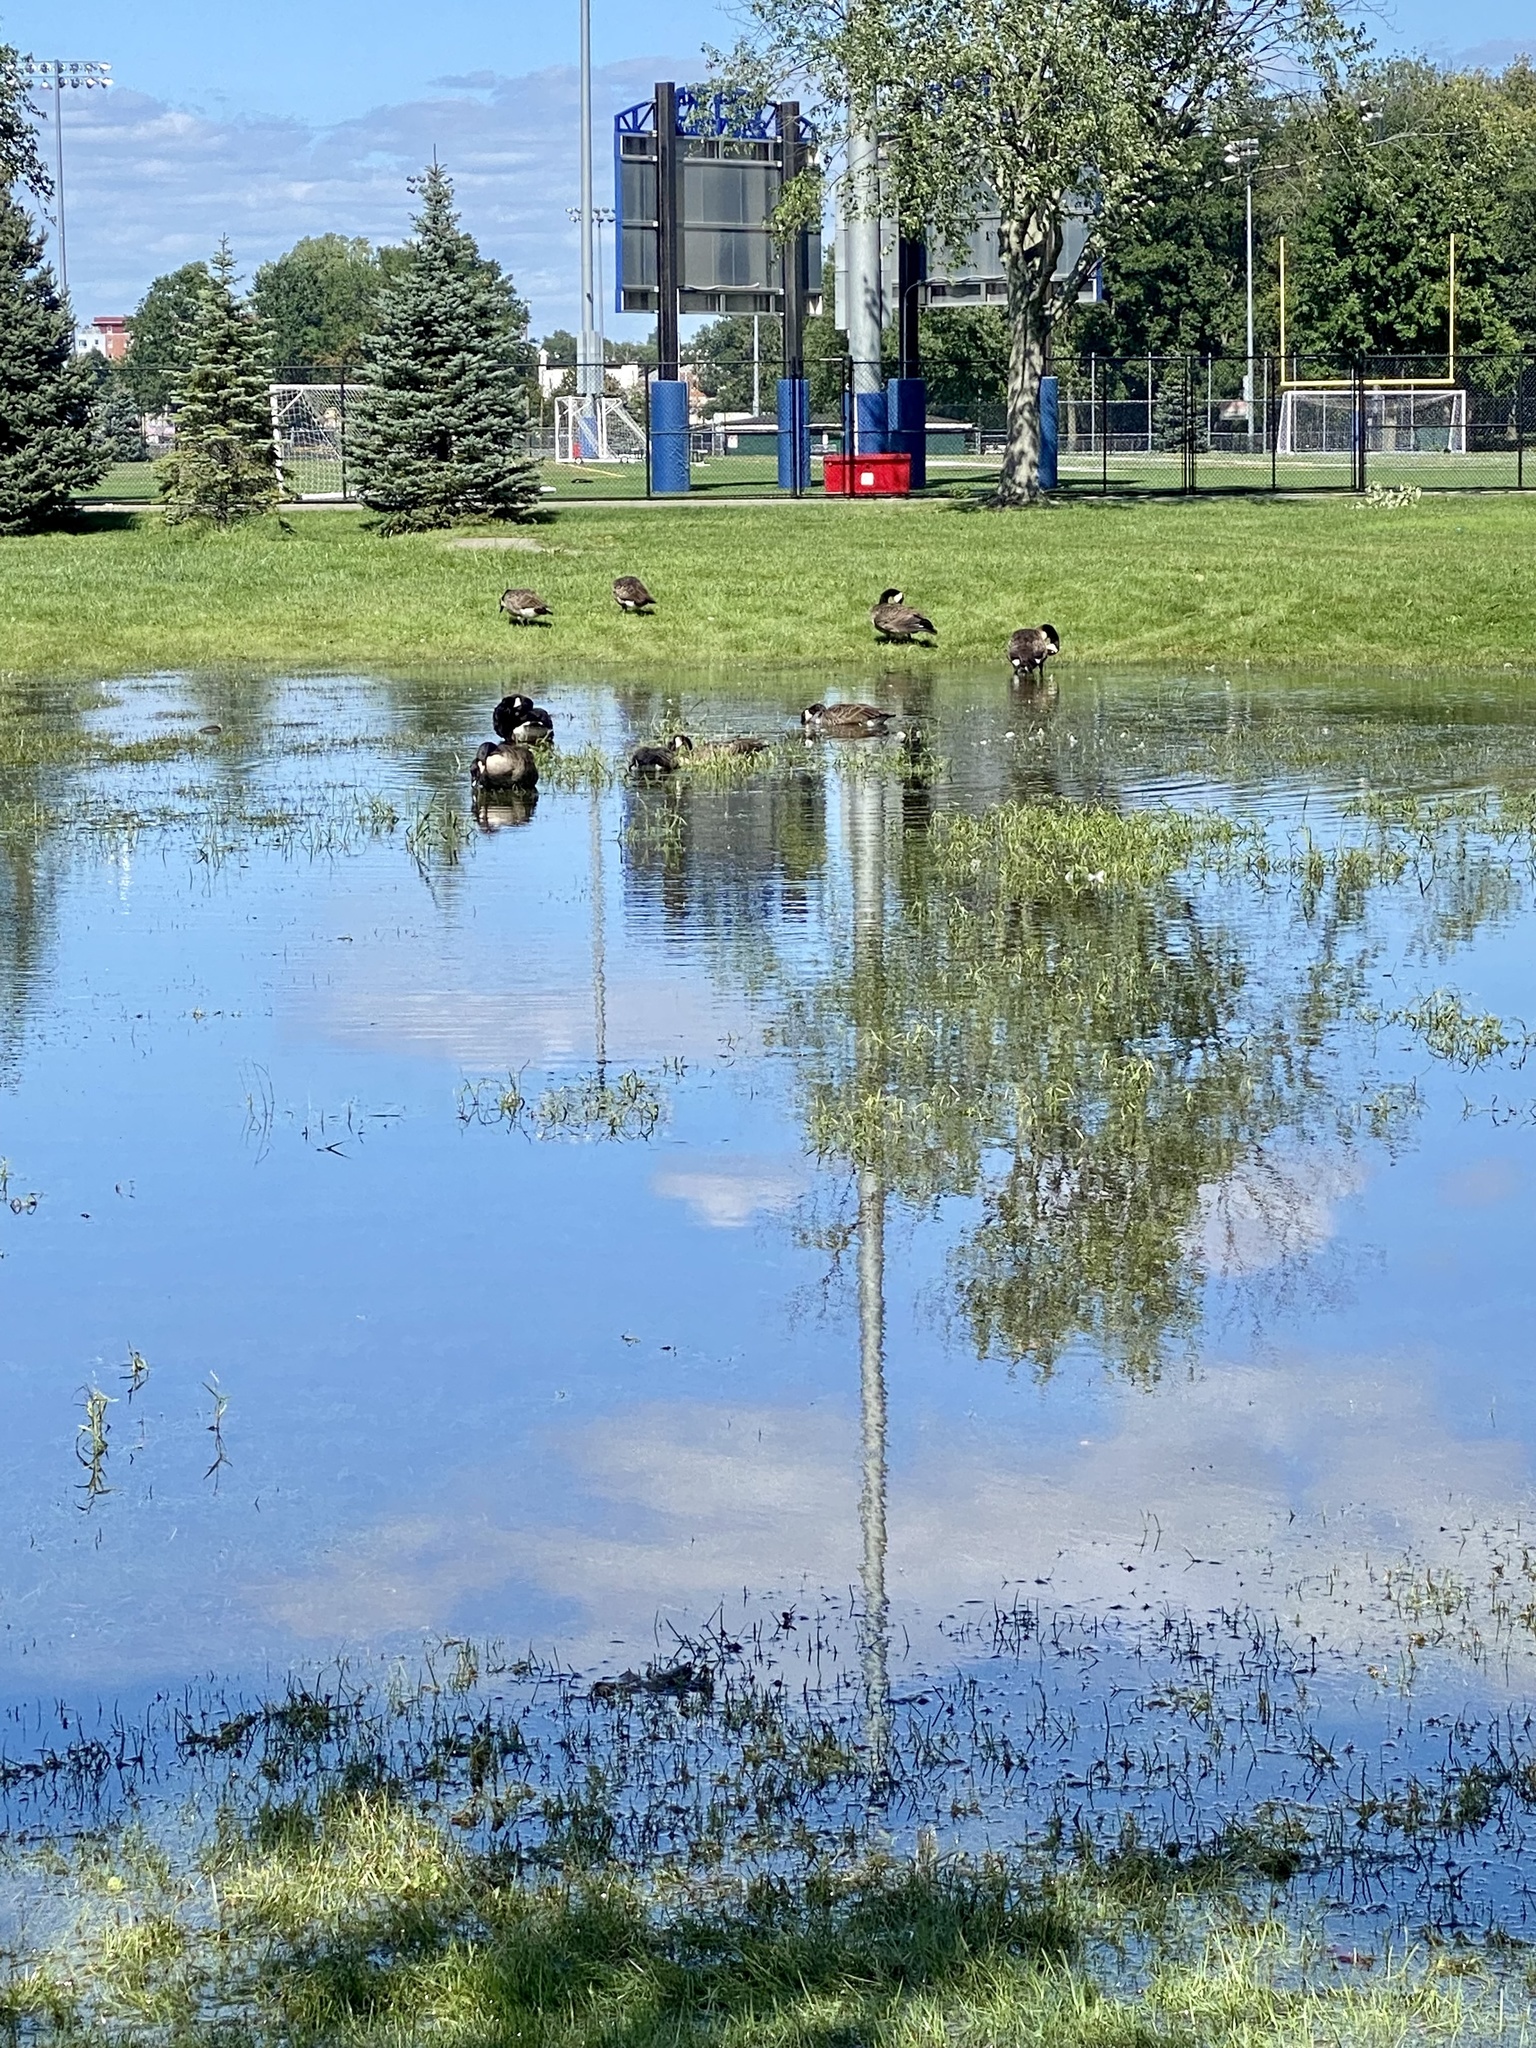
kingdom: Animalia
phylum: Chordata
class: Aves
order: Anseriformes
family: Anatidae
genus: Branta
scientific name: Branta canadensis
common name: Canada goose
